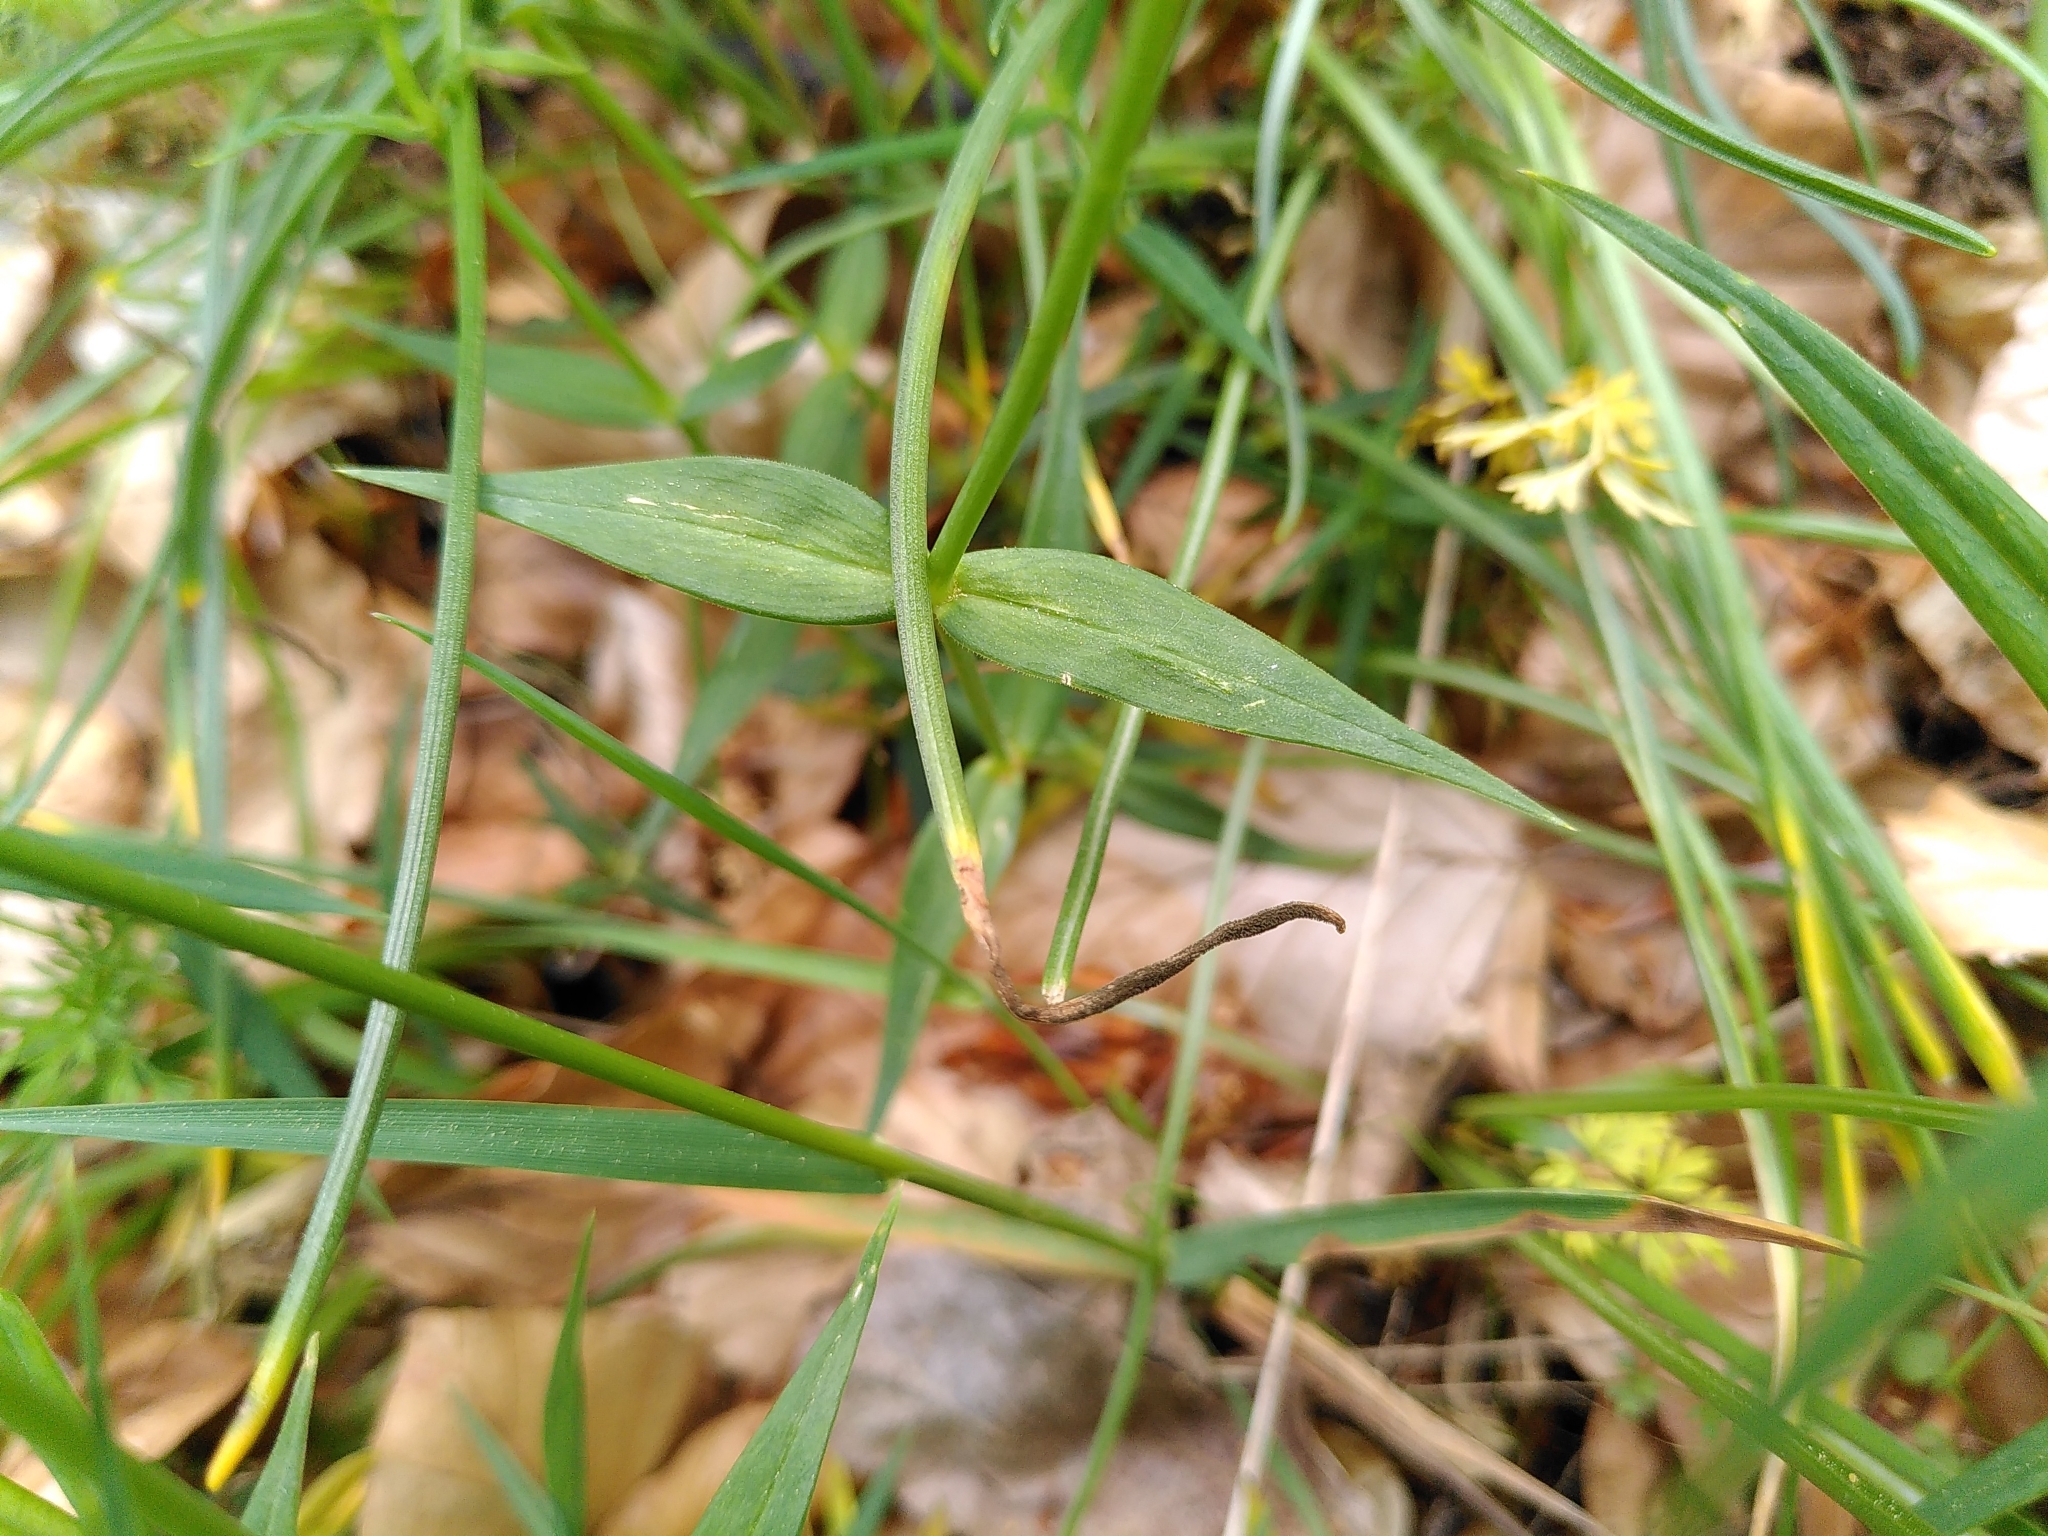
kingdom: Plantae
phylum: Tracheophyta
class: Magnoliopsida
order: Caryophyllales
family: Caryophyllaceae
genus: Rabelera
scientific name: Rabelera holostea
